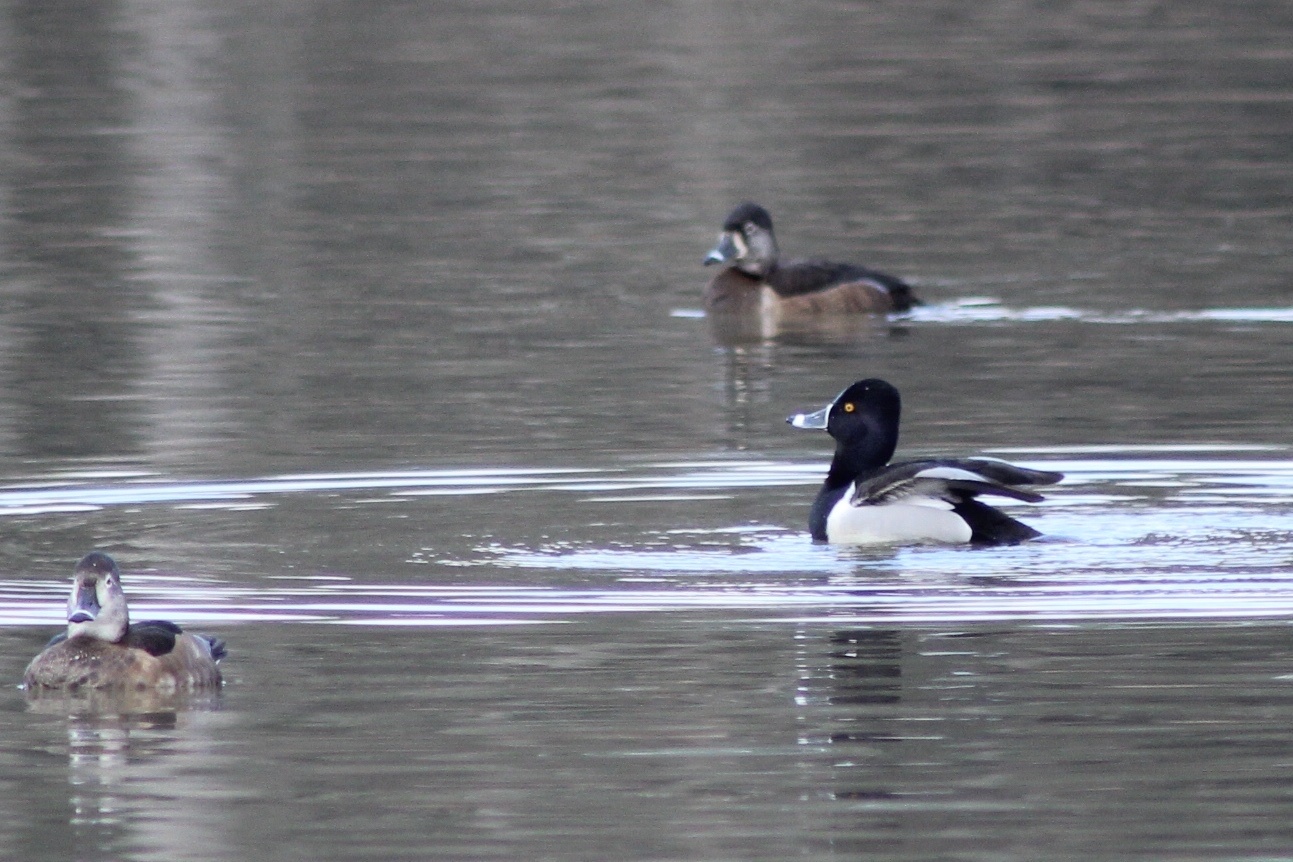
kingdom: Animalia
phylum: Chordata
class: Aves
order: Anseriformes
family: Anatidae
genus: Aythya
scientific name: Aythya collaris
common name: Ring-necked duck
